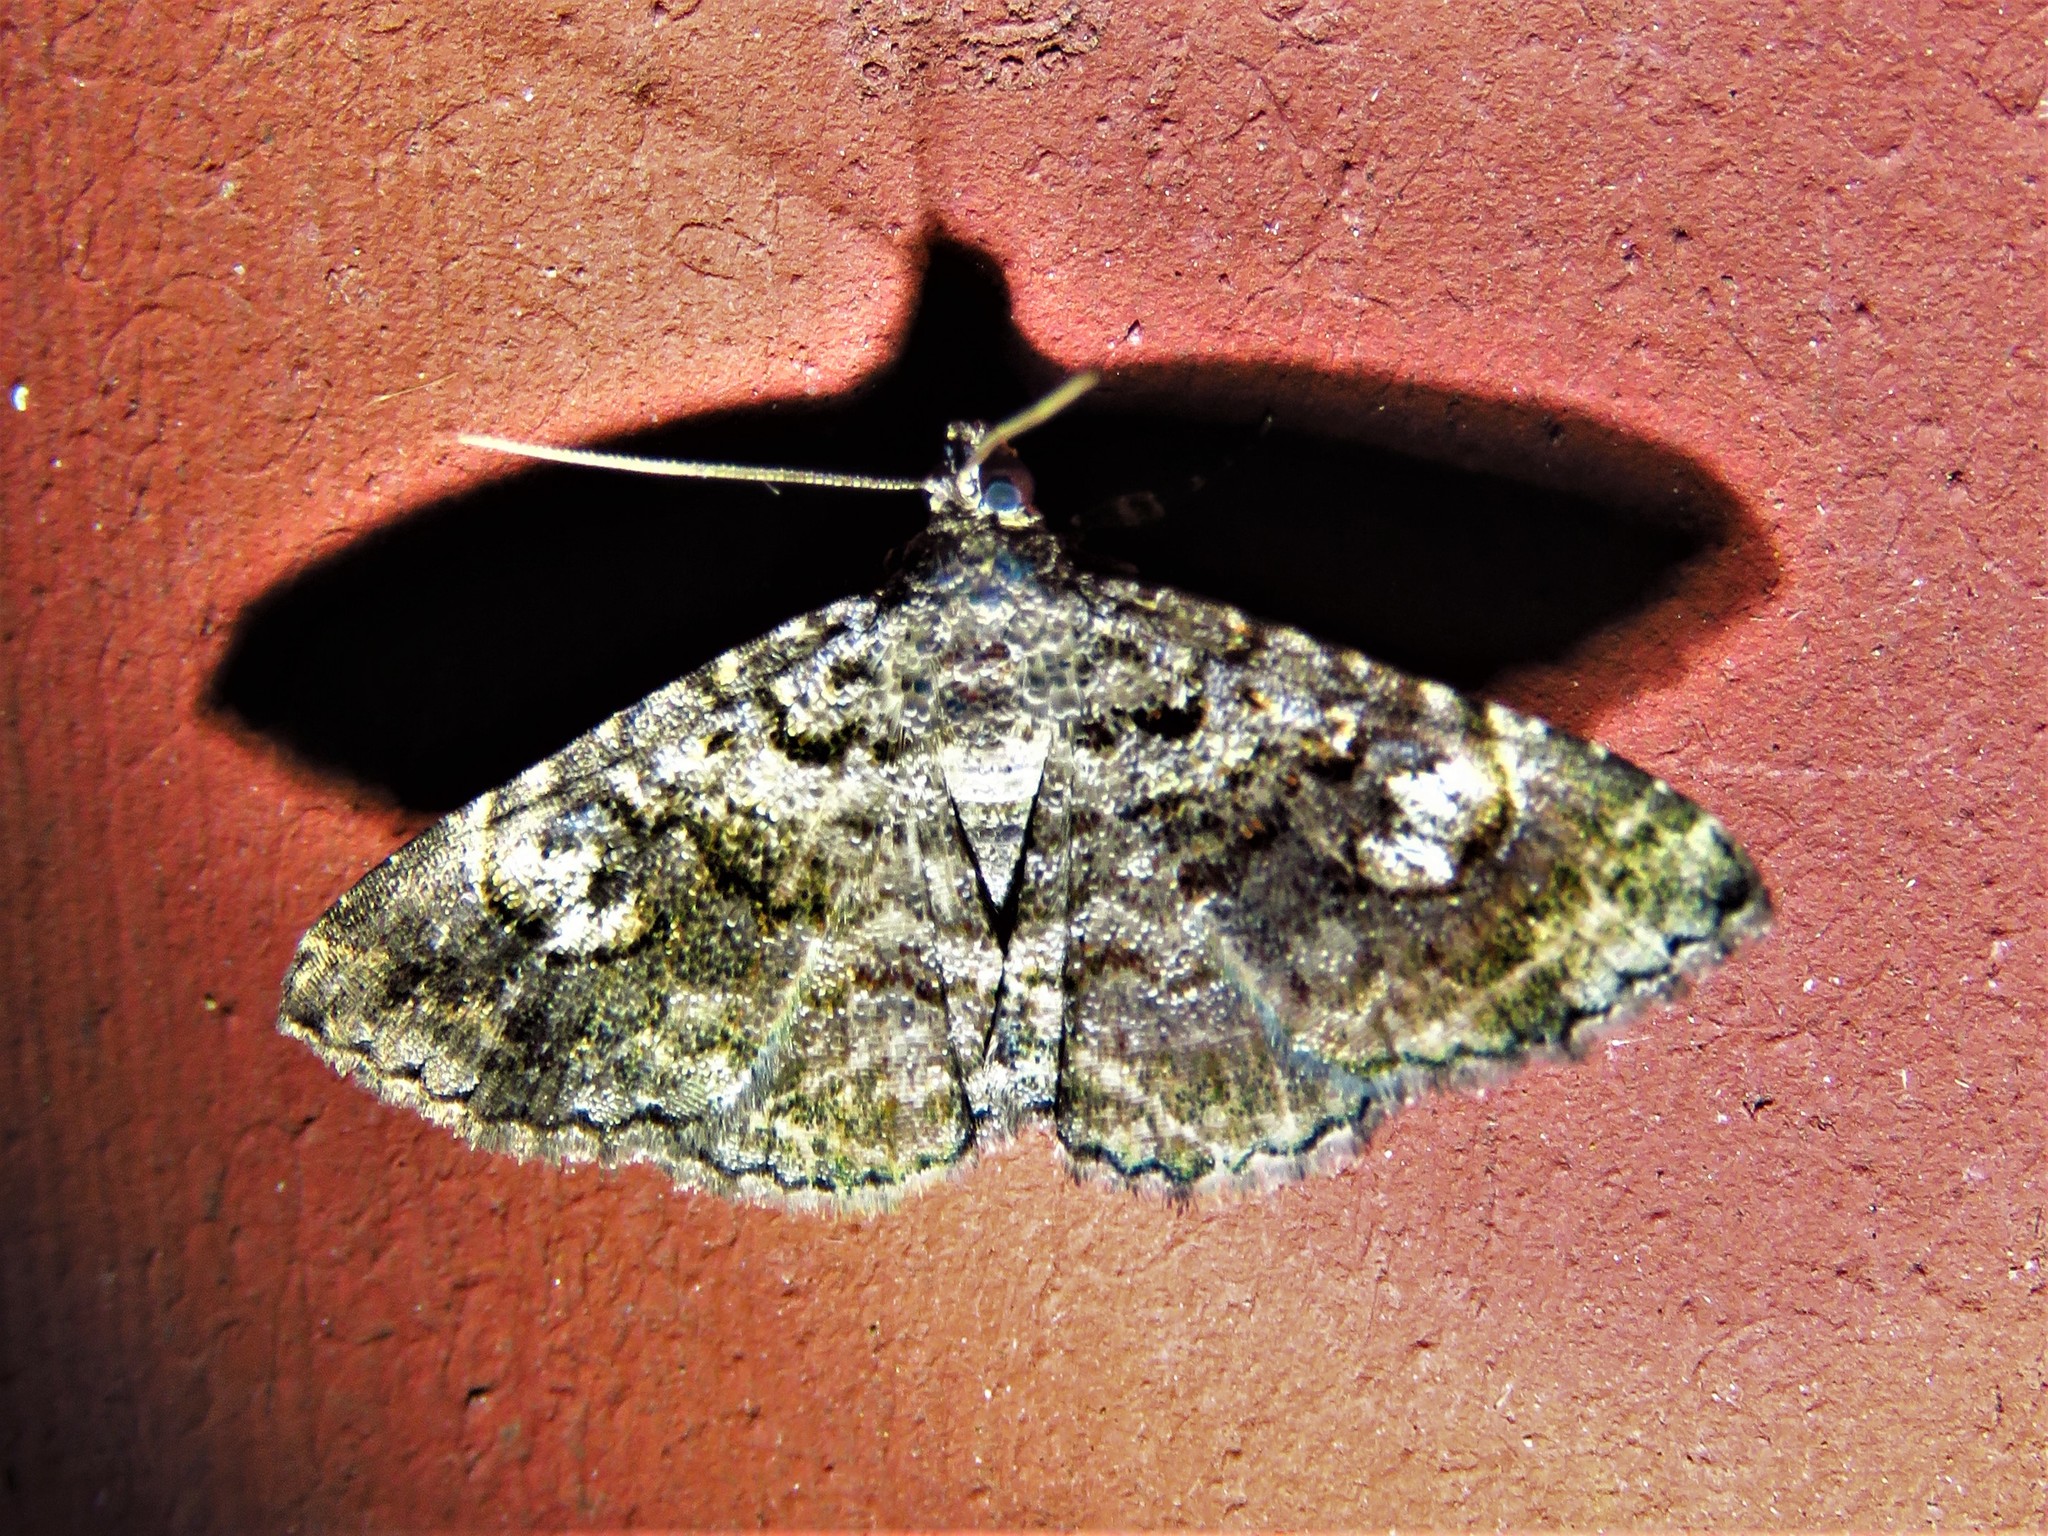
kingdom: Animalia
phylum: Arthropoda
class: Insecta
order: Lepidoptera
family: Erebidae
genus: Toxonprucha
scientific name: Toxonprucha repentis
